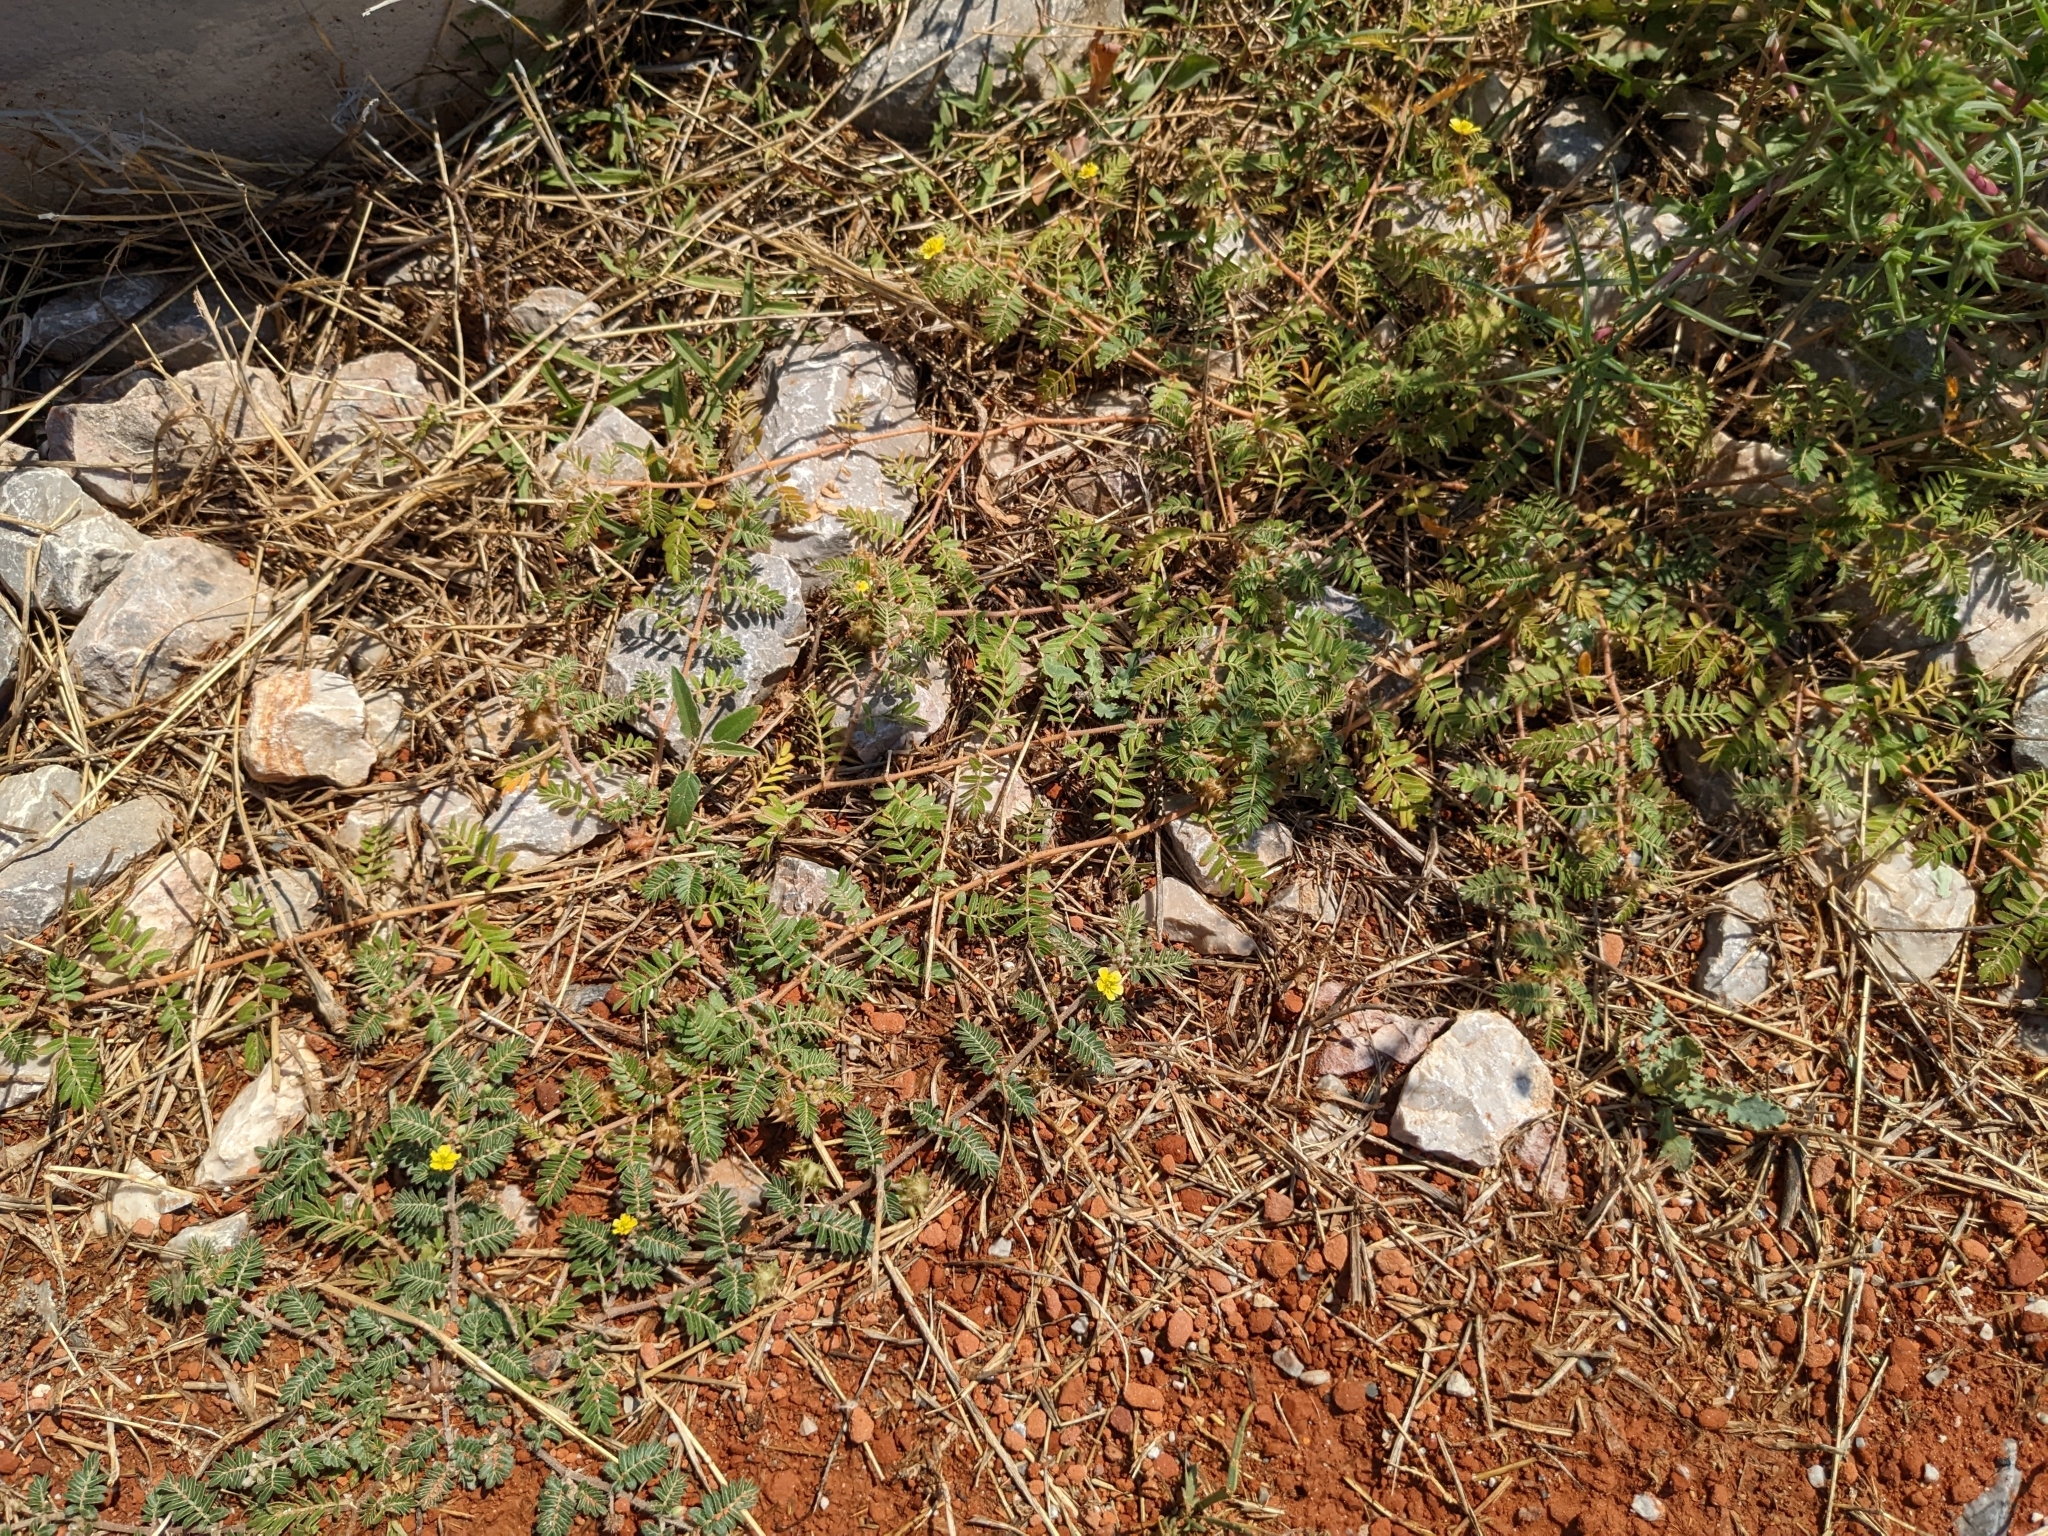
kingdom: Plantae
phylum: Tracheophyta
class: Magnoliopsida
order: Zygophyllales
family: Zygophyllaceae
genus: Tribulus
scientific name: Tribulus terrestris
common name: Puncturevine
